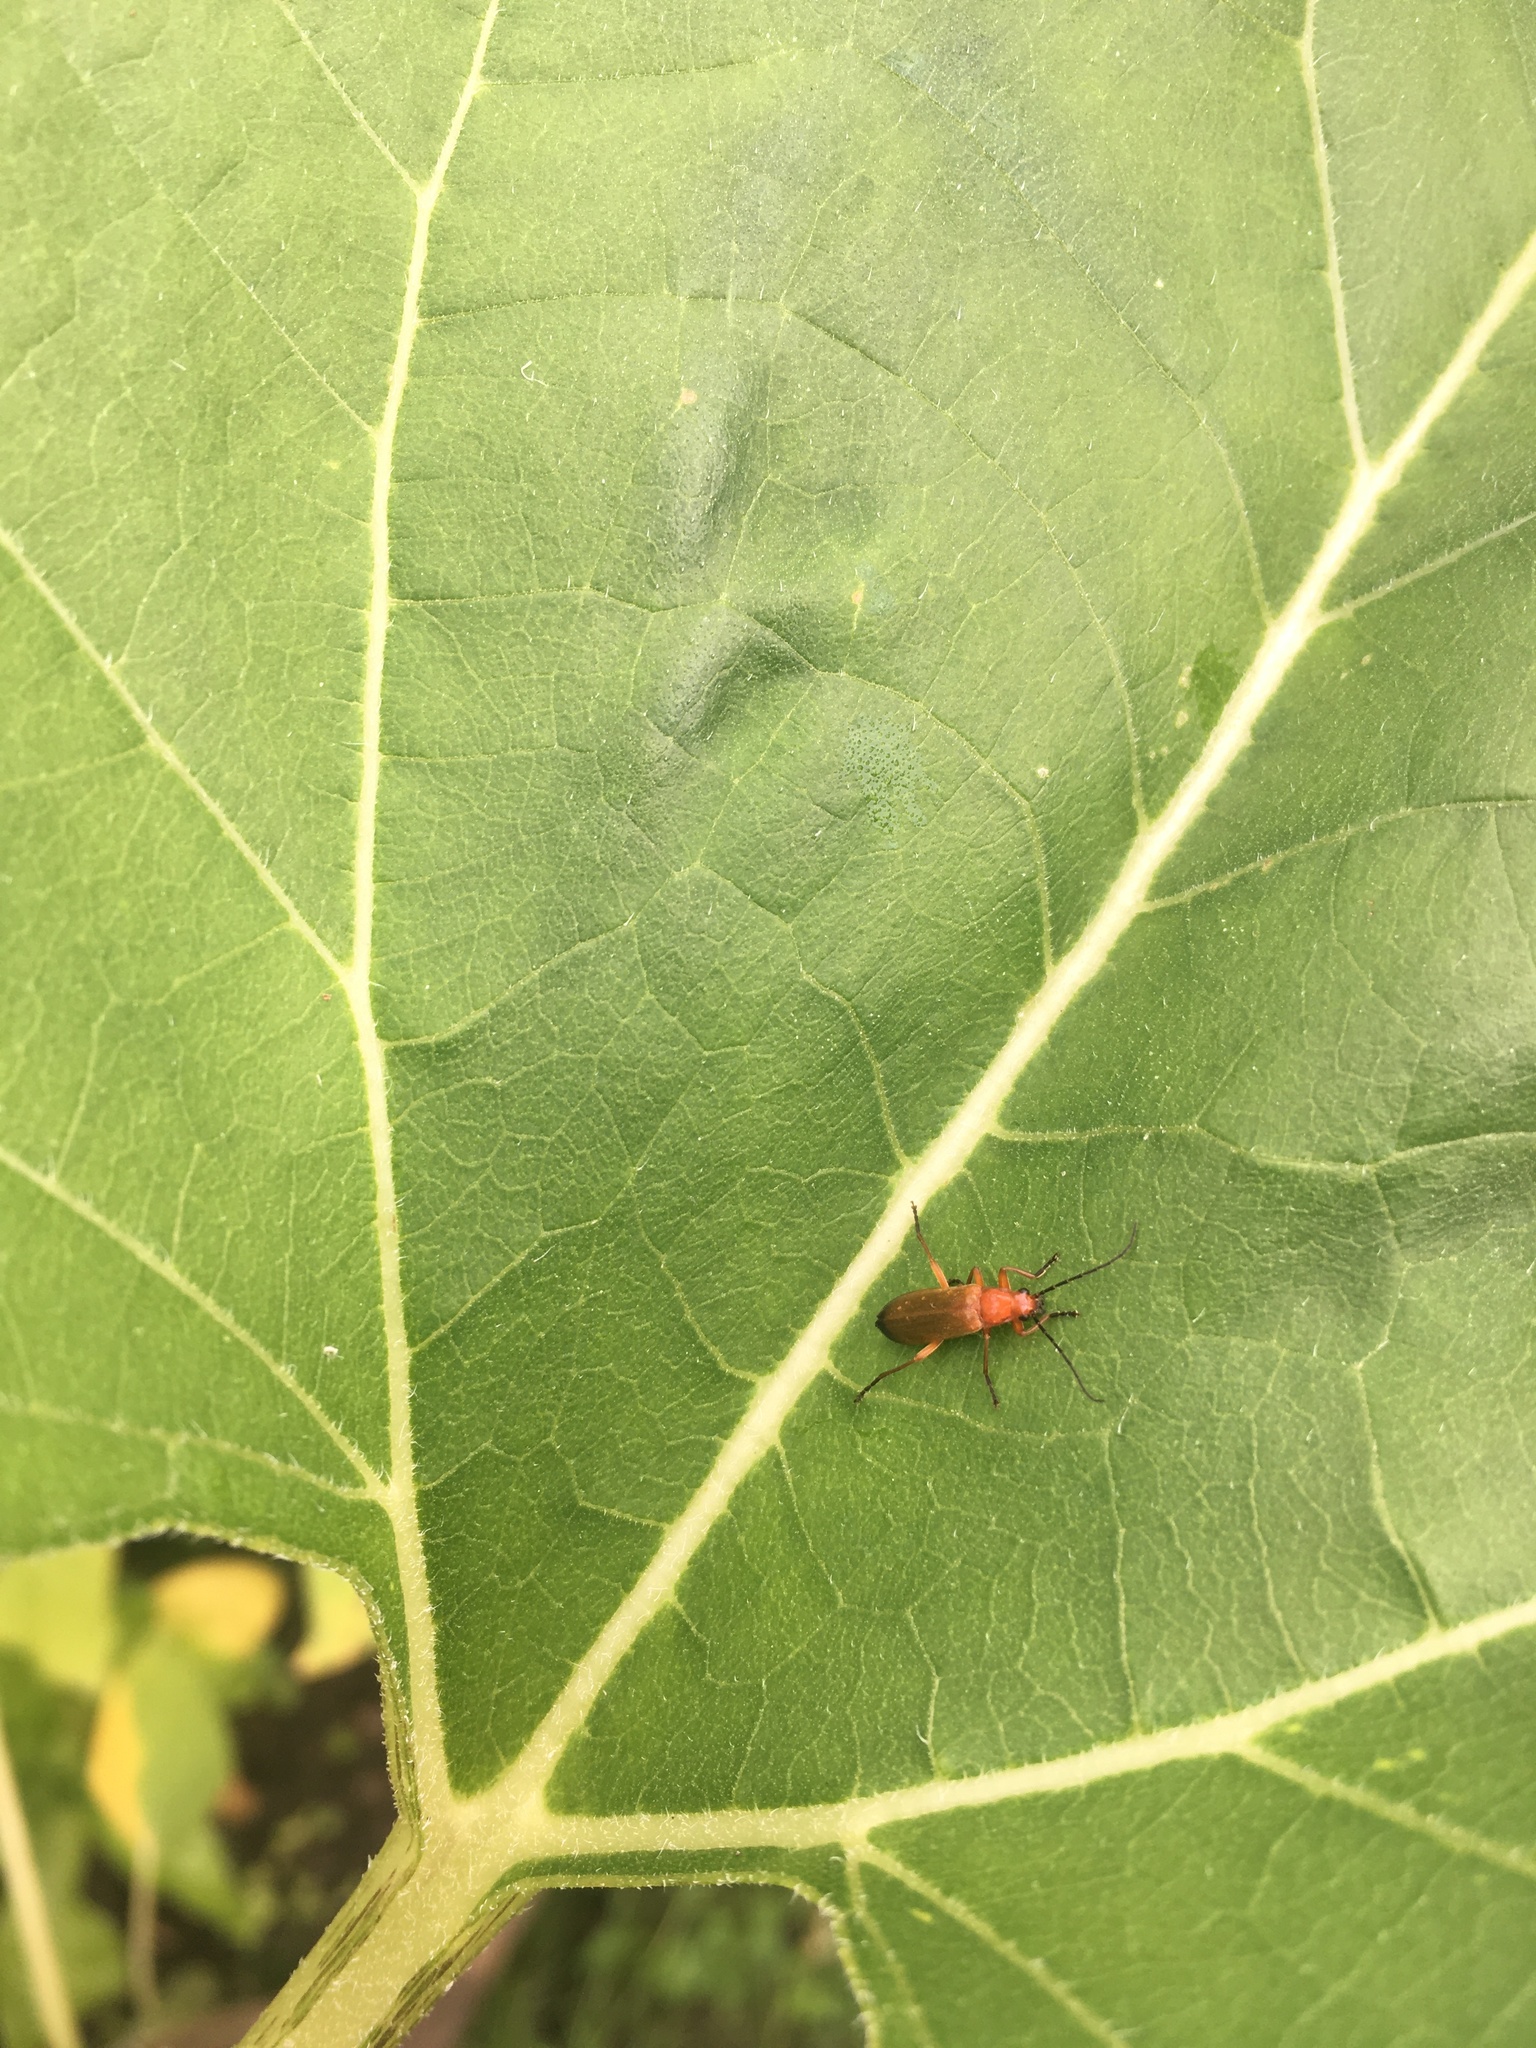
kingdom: Animalia
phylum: Arthropoda
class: Insecta
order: Coleoptera
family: Cantharidae
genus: Rhagonycha
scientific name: Rhagonycha fulva
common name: Common red soldier beetle
